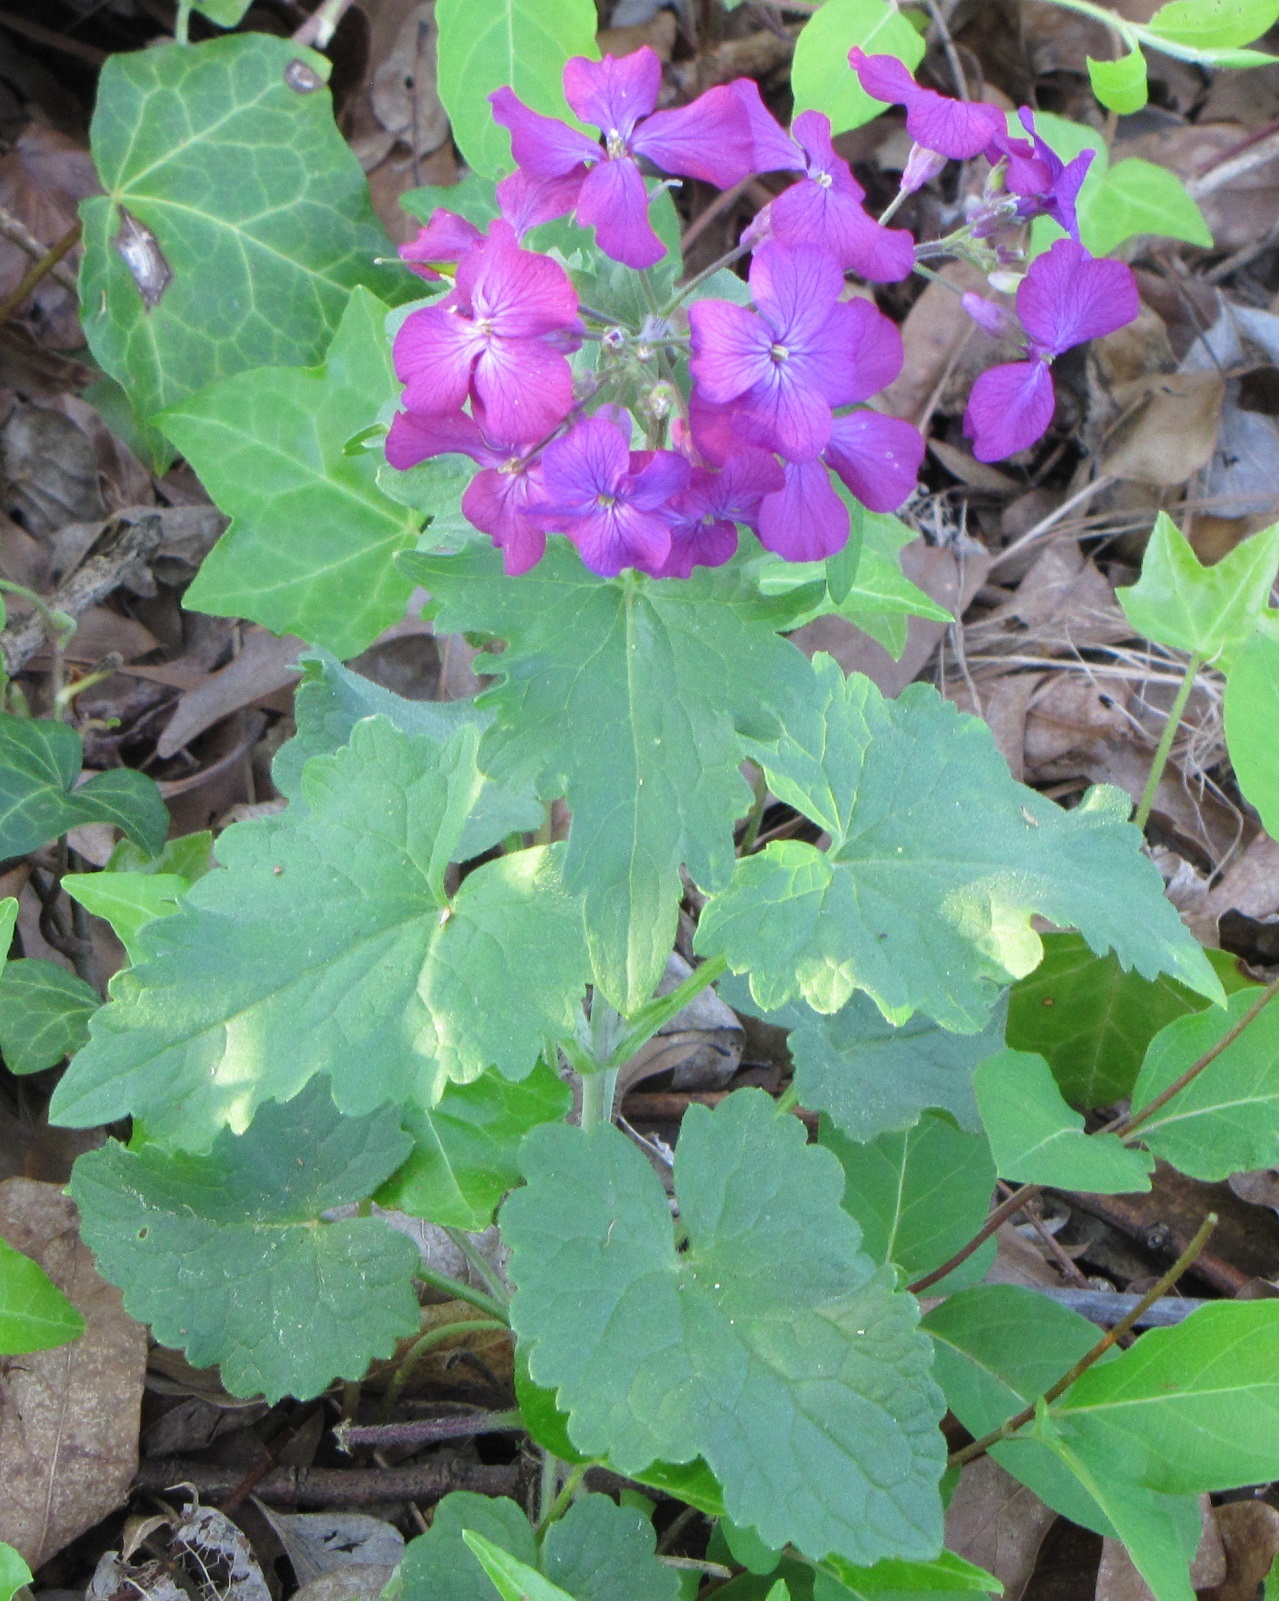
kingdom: Plantae
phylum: Tracheophyta
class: Magnoliopsida
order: Brassicales
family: Brassicaceae
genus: Lunaria
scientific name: Lunaria annua
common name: Honesty
